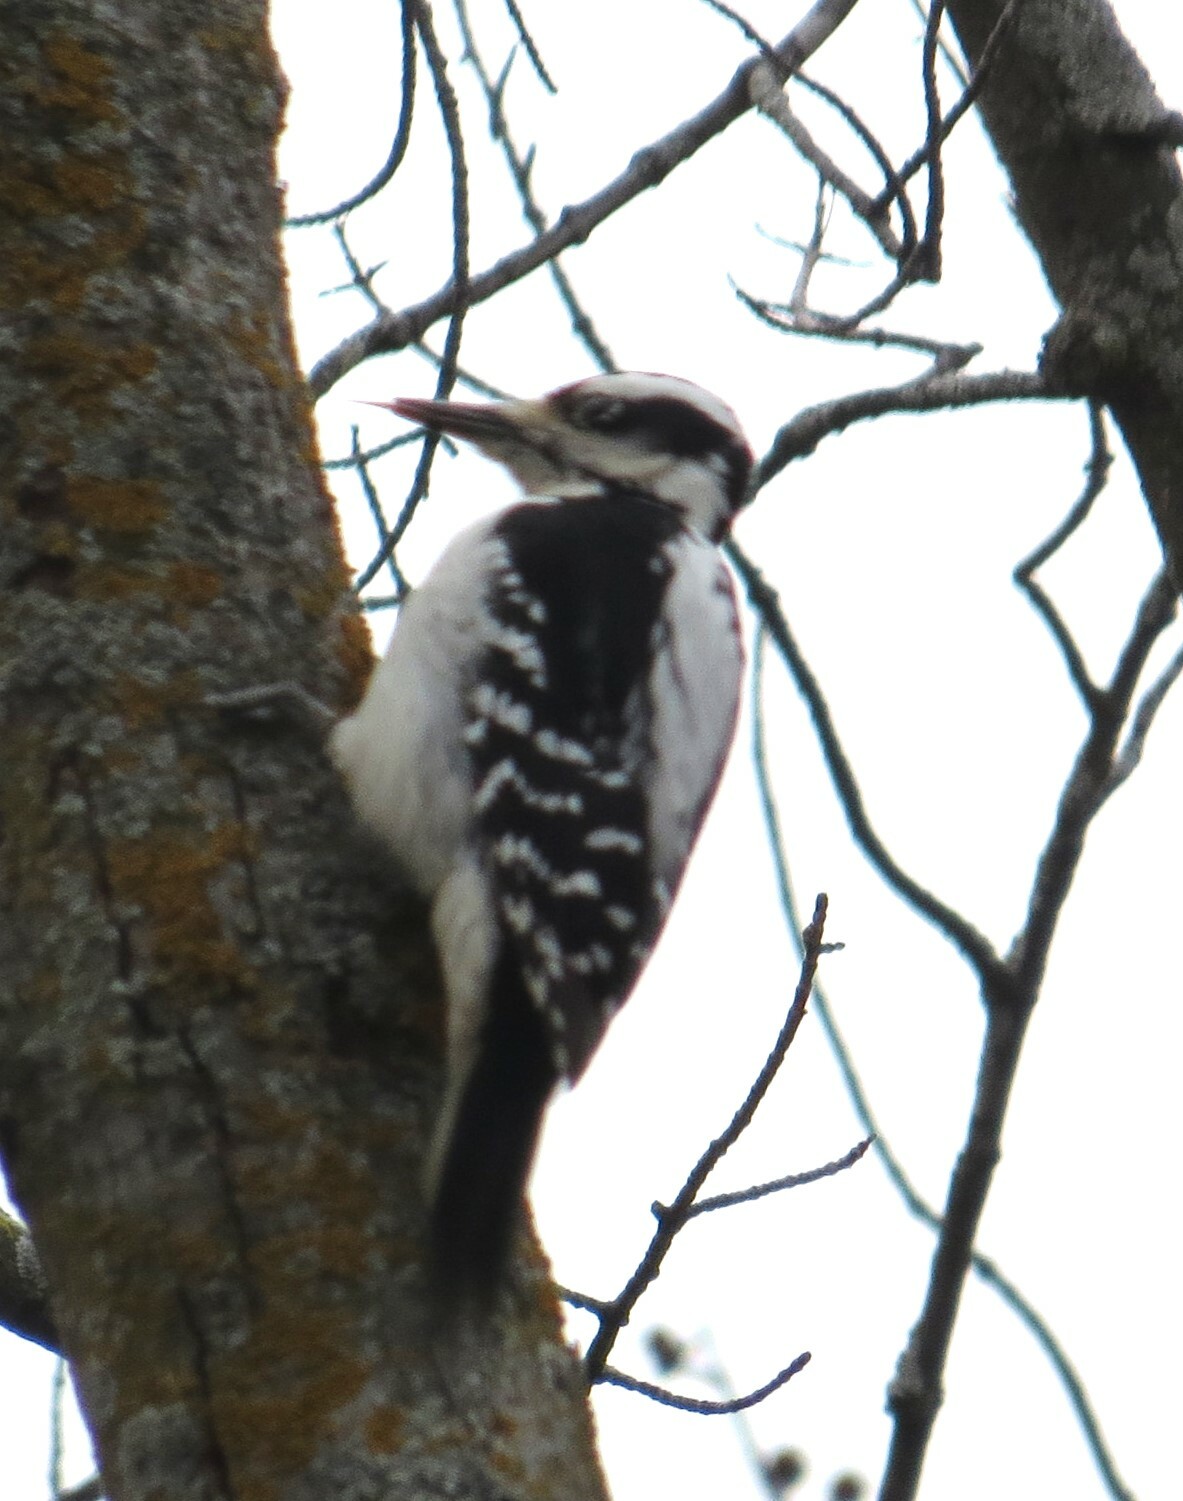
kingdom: Animalia
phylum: Chordata
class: Aves
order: Piciformes
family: Picidae
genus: Leuconotopicus
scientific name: Leuconotopicus villosus
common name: Hairy woodpecker
